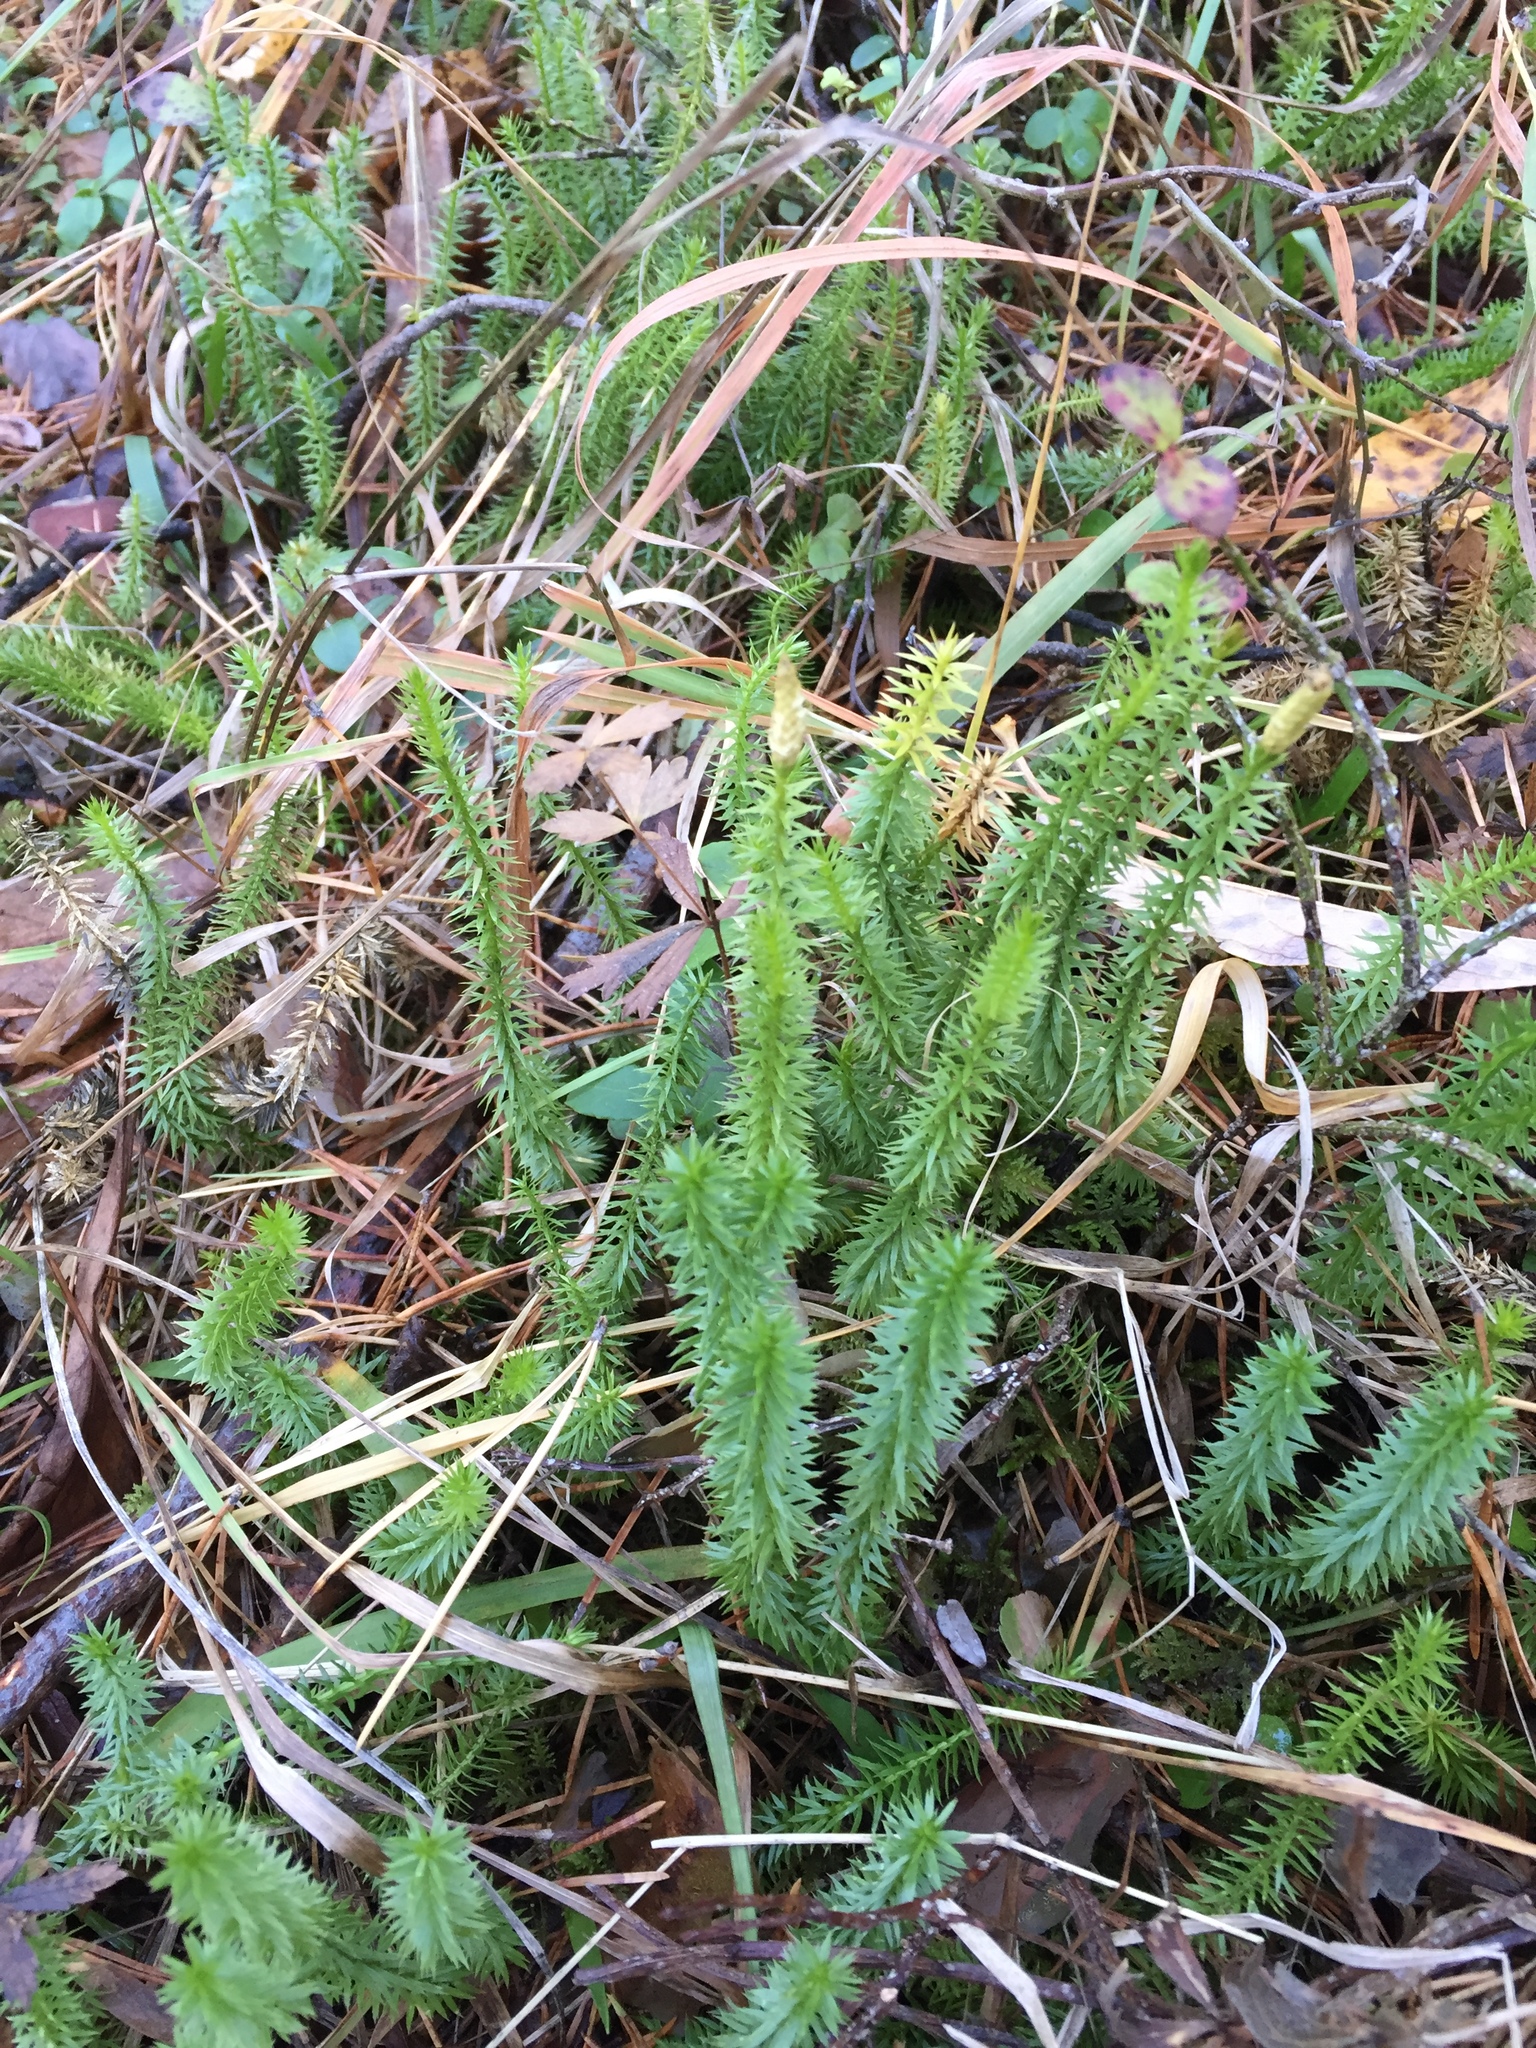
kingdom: Plantae
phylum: Tracheophyta
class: Lycopodiopsida
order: Lycopodiales
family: Lycopodiaceae
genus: Spinulum
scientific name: Spinulum annotinum
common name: Interrupted club-moss
